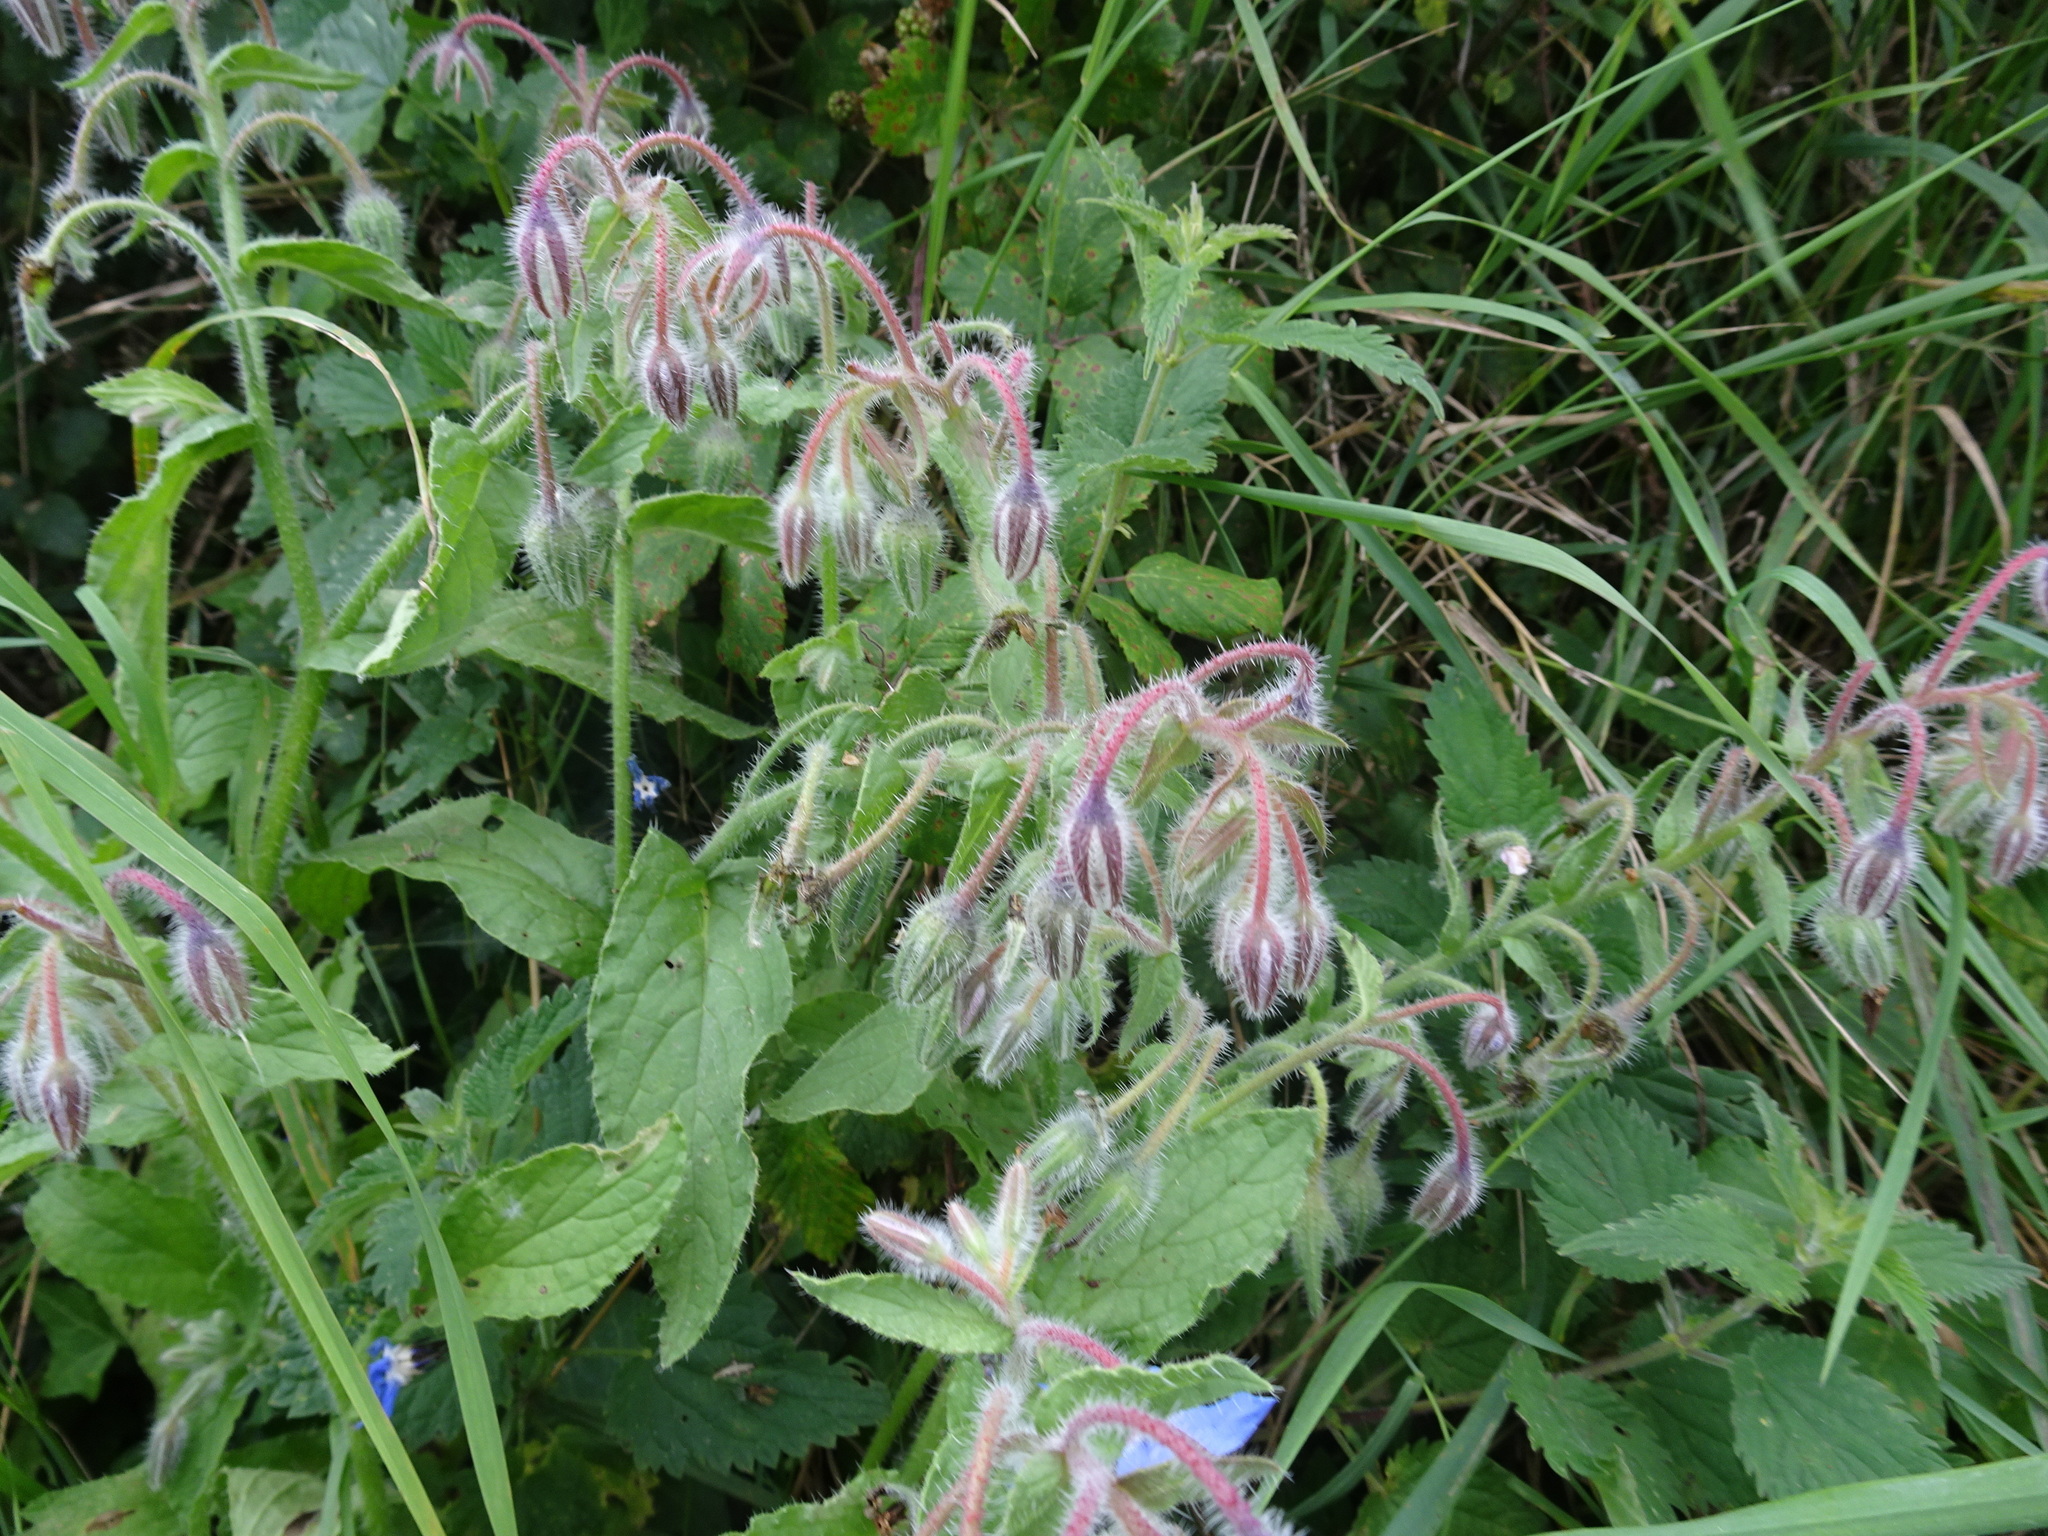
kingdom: Plantae
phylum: Tracheophyta
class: Magnoliopsida
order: Boraginales
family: Boraginaceae
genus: Borago
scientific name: Borago officinalis
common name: Borage
